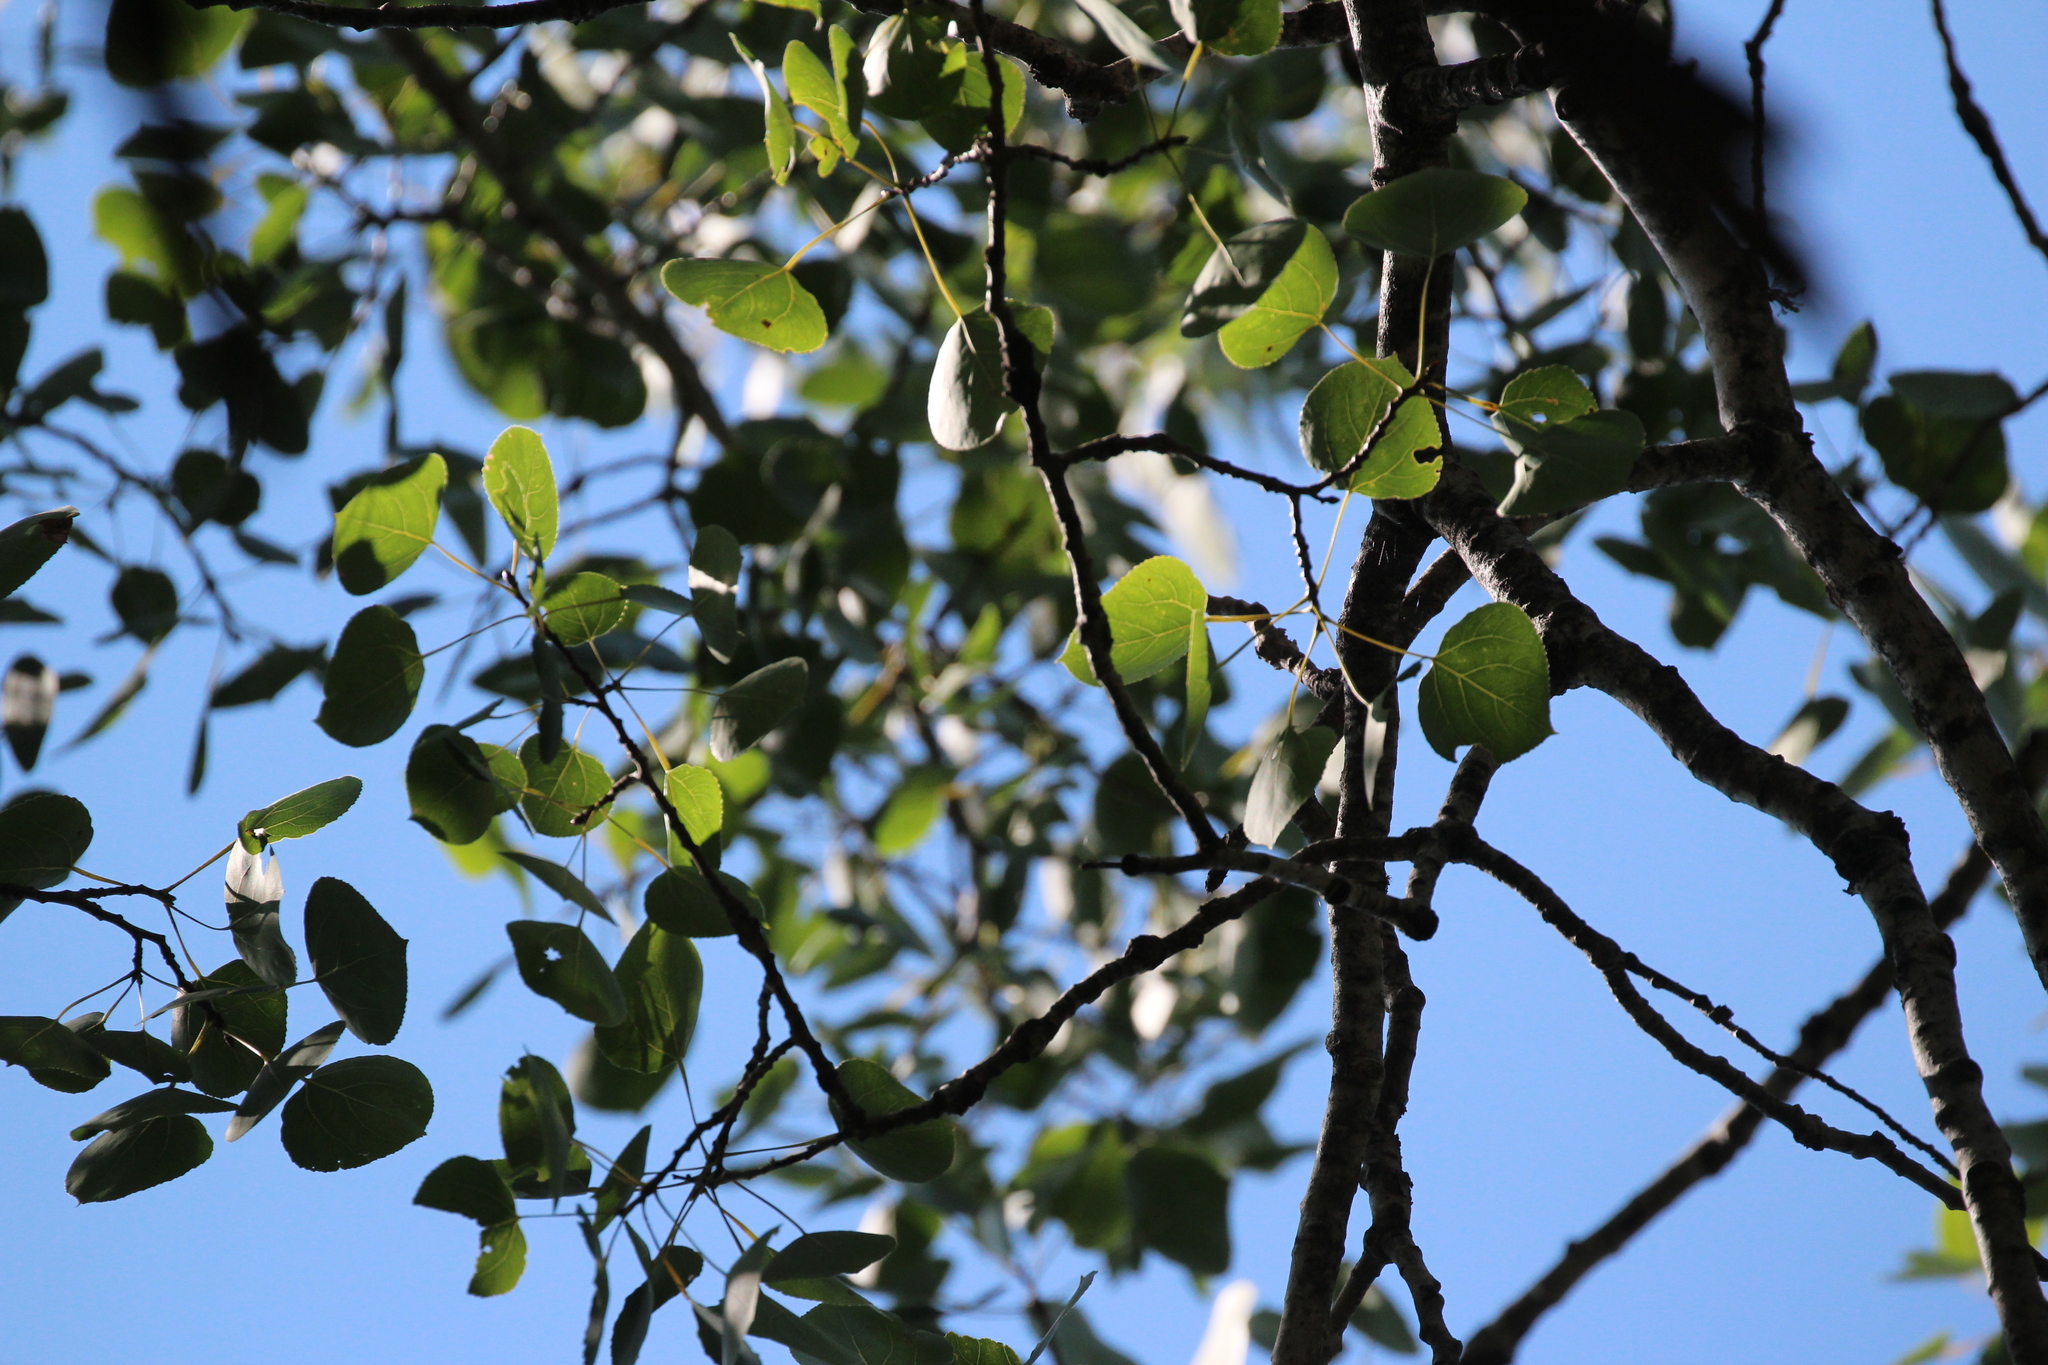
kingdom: Plantae
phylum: Tracheophyta
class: Magnoliopsida
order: Malpighiales
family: Salicaceae
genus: Populus
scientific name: Populus tremuloides
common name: Quaking aspen
